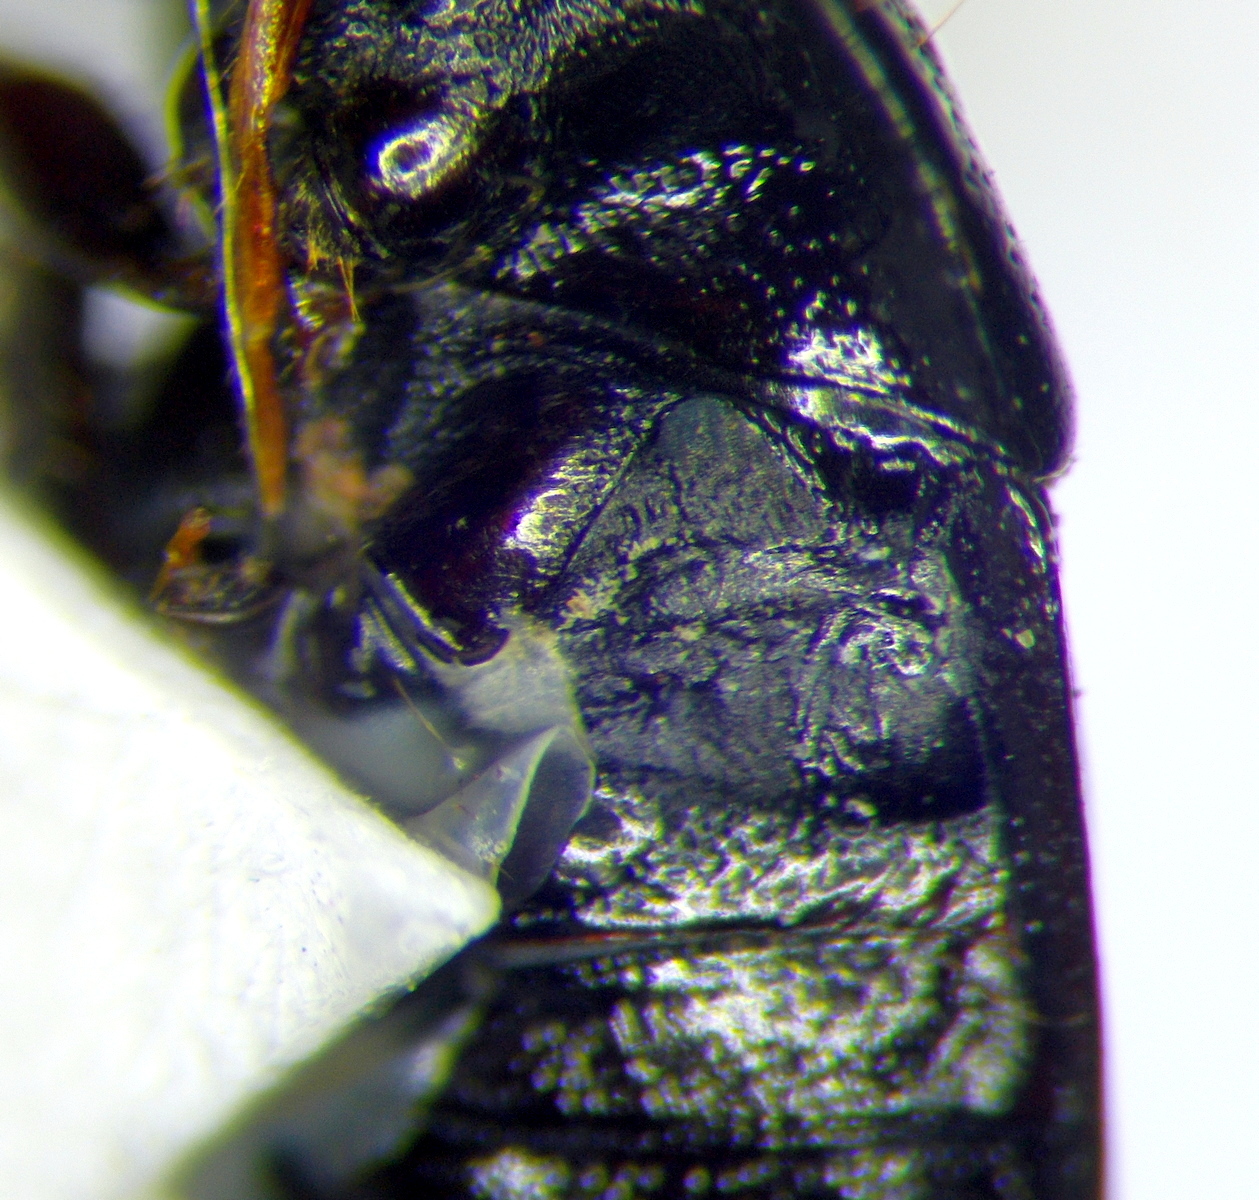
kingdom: Animalia
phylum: Arthropoda
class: Insecta
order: Hemiptera
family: Cydnidae
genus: Fromundiellus
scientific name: Fromundiellus latiusculus
